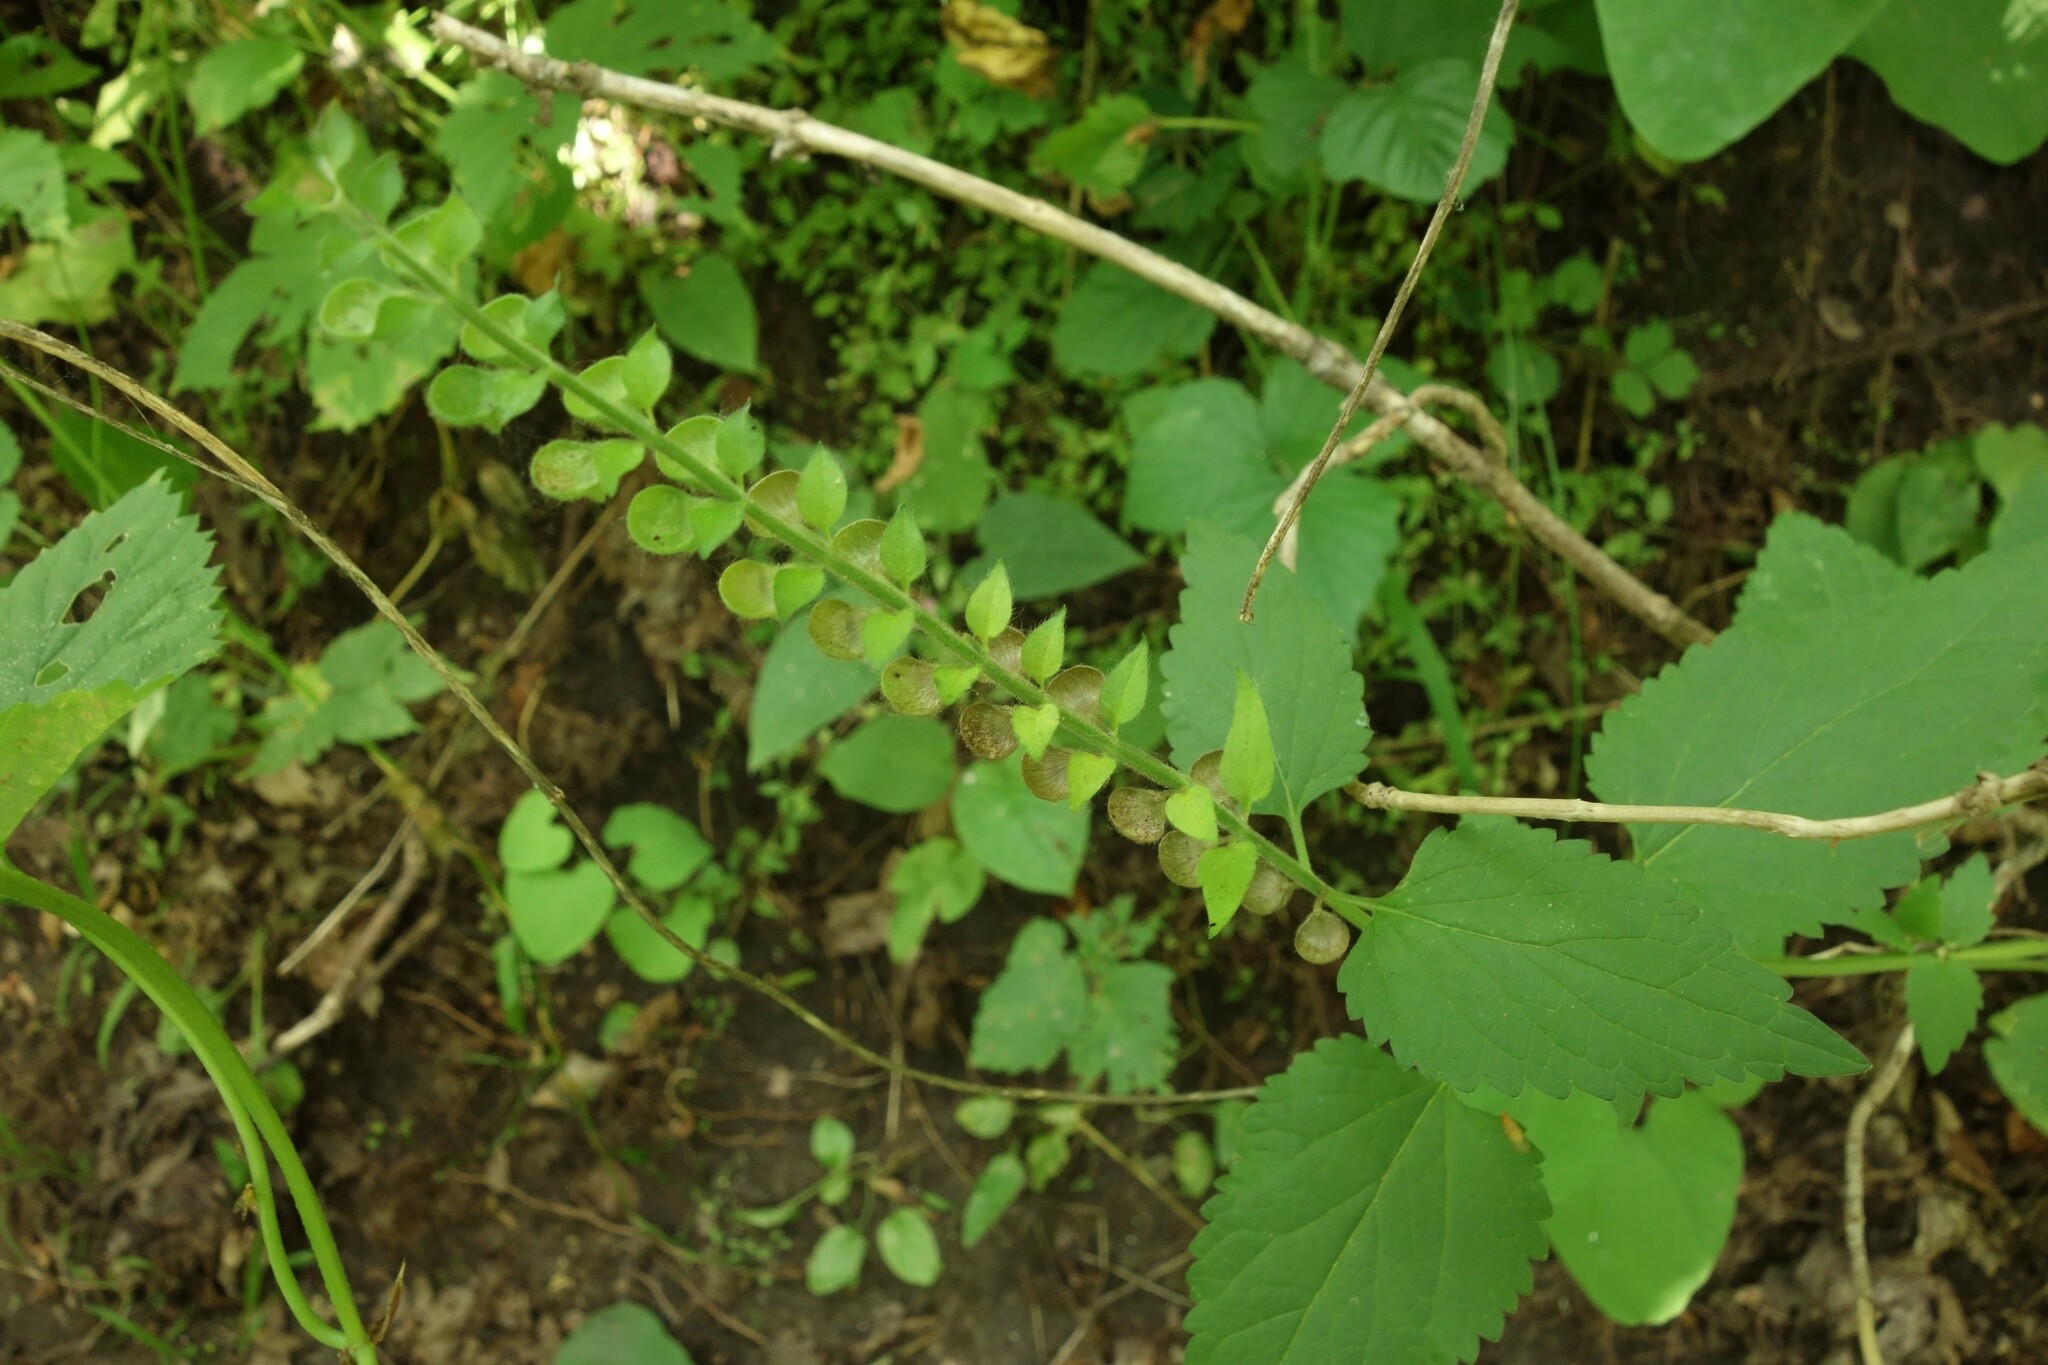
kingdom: Plantae
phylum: Tracheophyta
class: Magnoliopsida
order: Lamiales
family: Lamiaceae
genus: Scutellaria
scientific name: Scutellaria altissima
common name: Somerset skullcap
